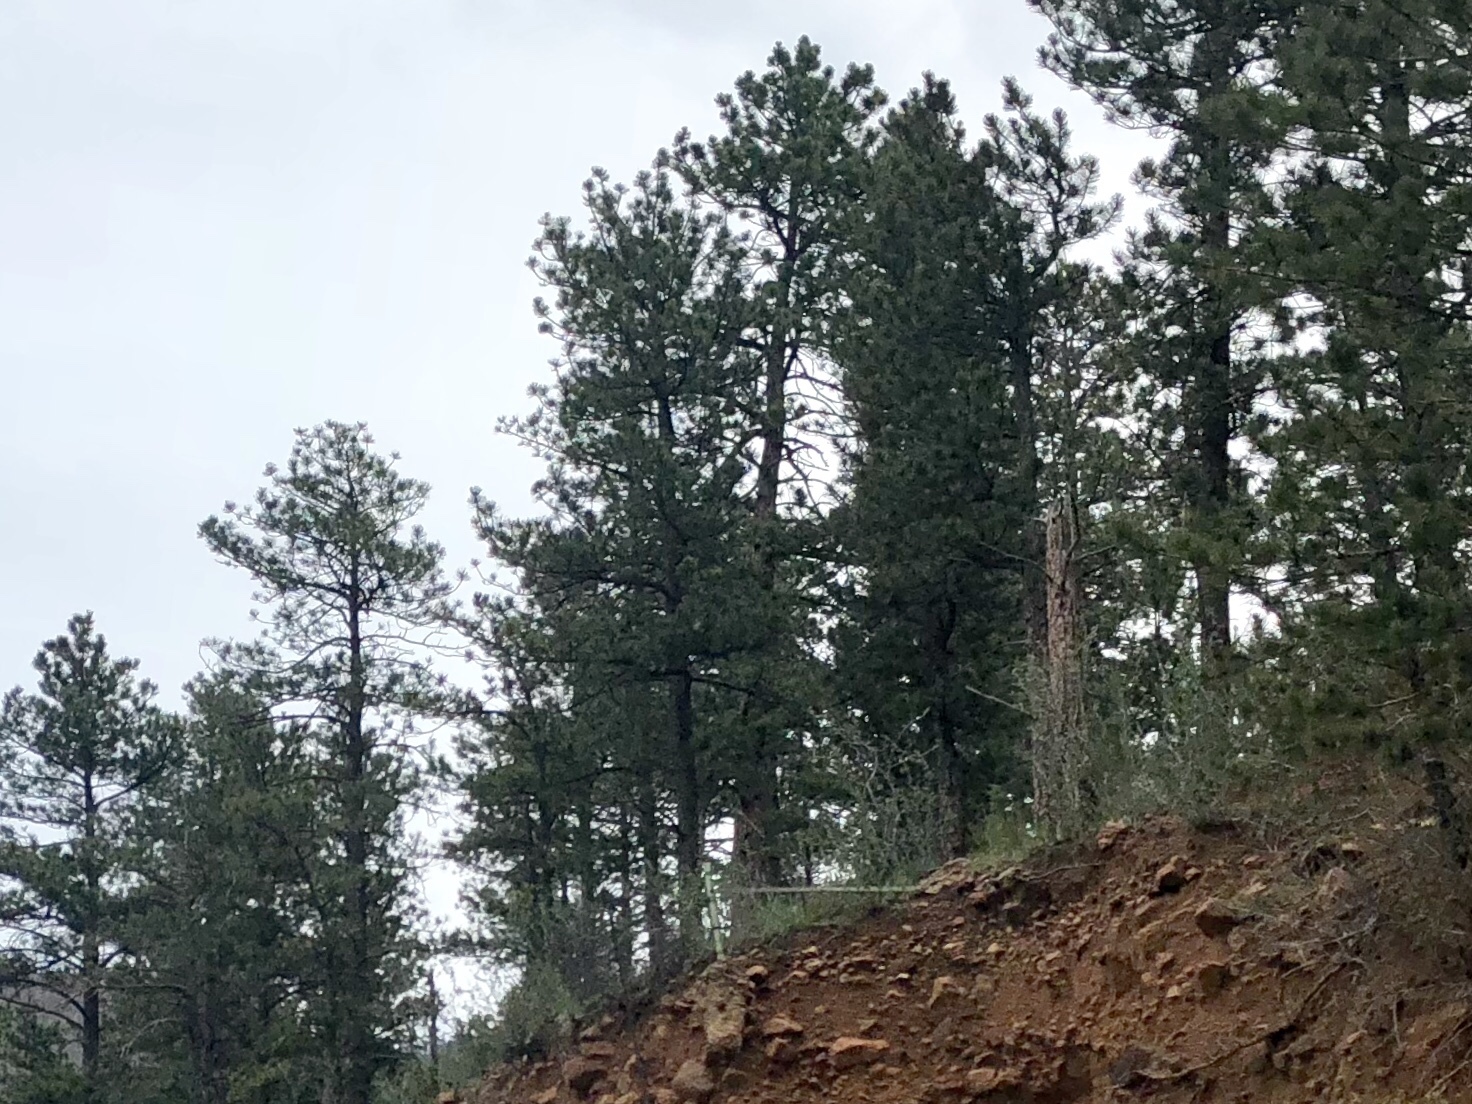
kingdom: Plantae
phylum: Tracheophyta
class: Pinopsida
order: Pinales
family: Pinaceae
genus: Pinus
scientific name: Pinus ponderosa
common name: Western yellow-pine
